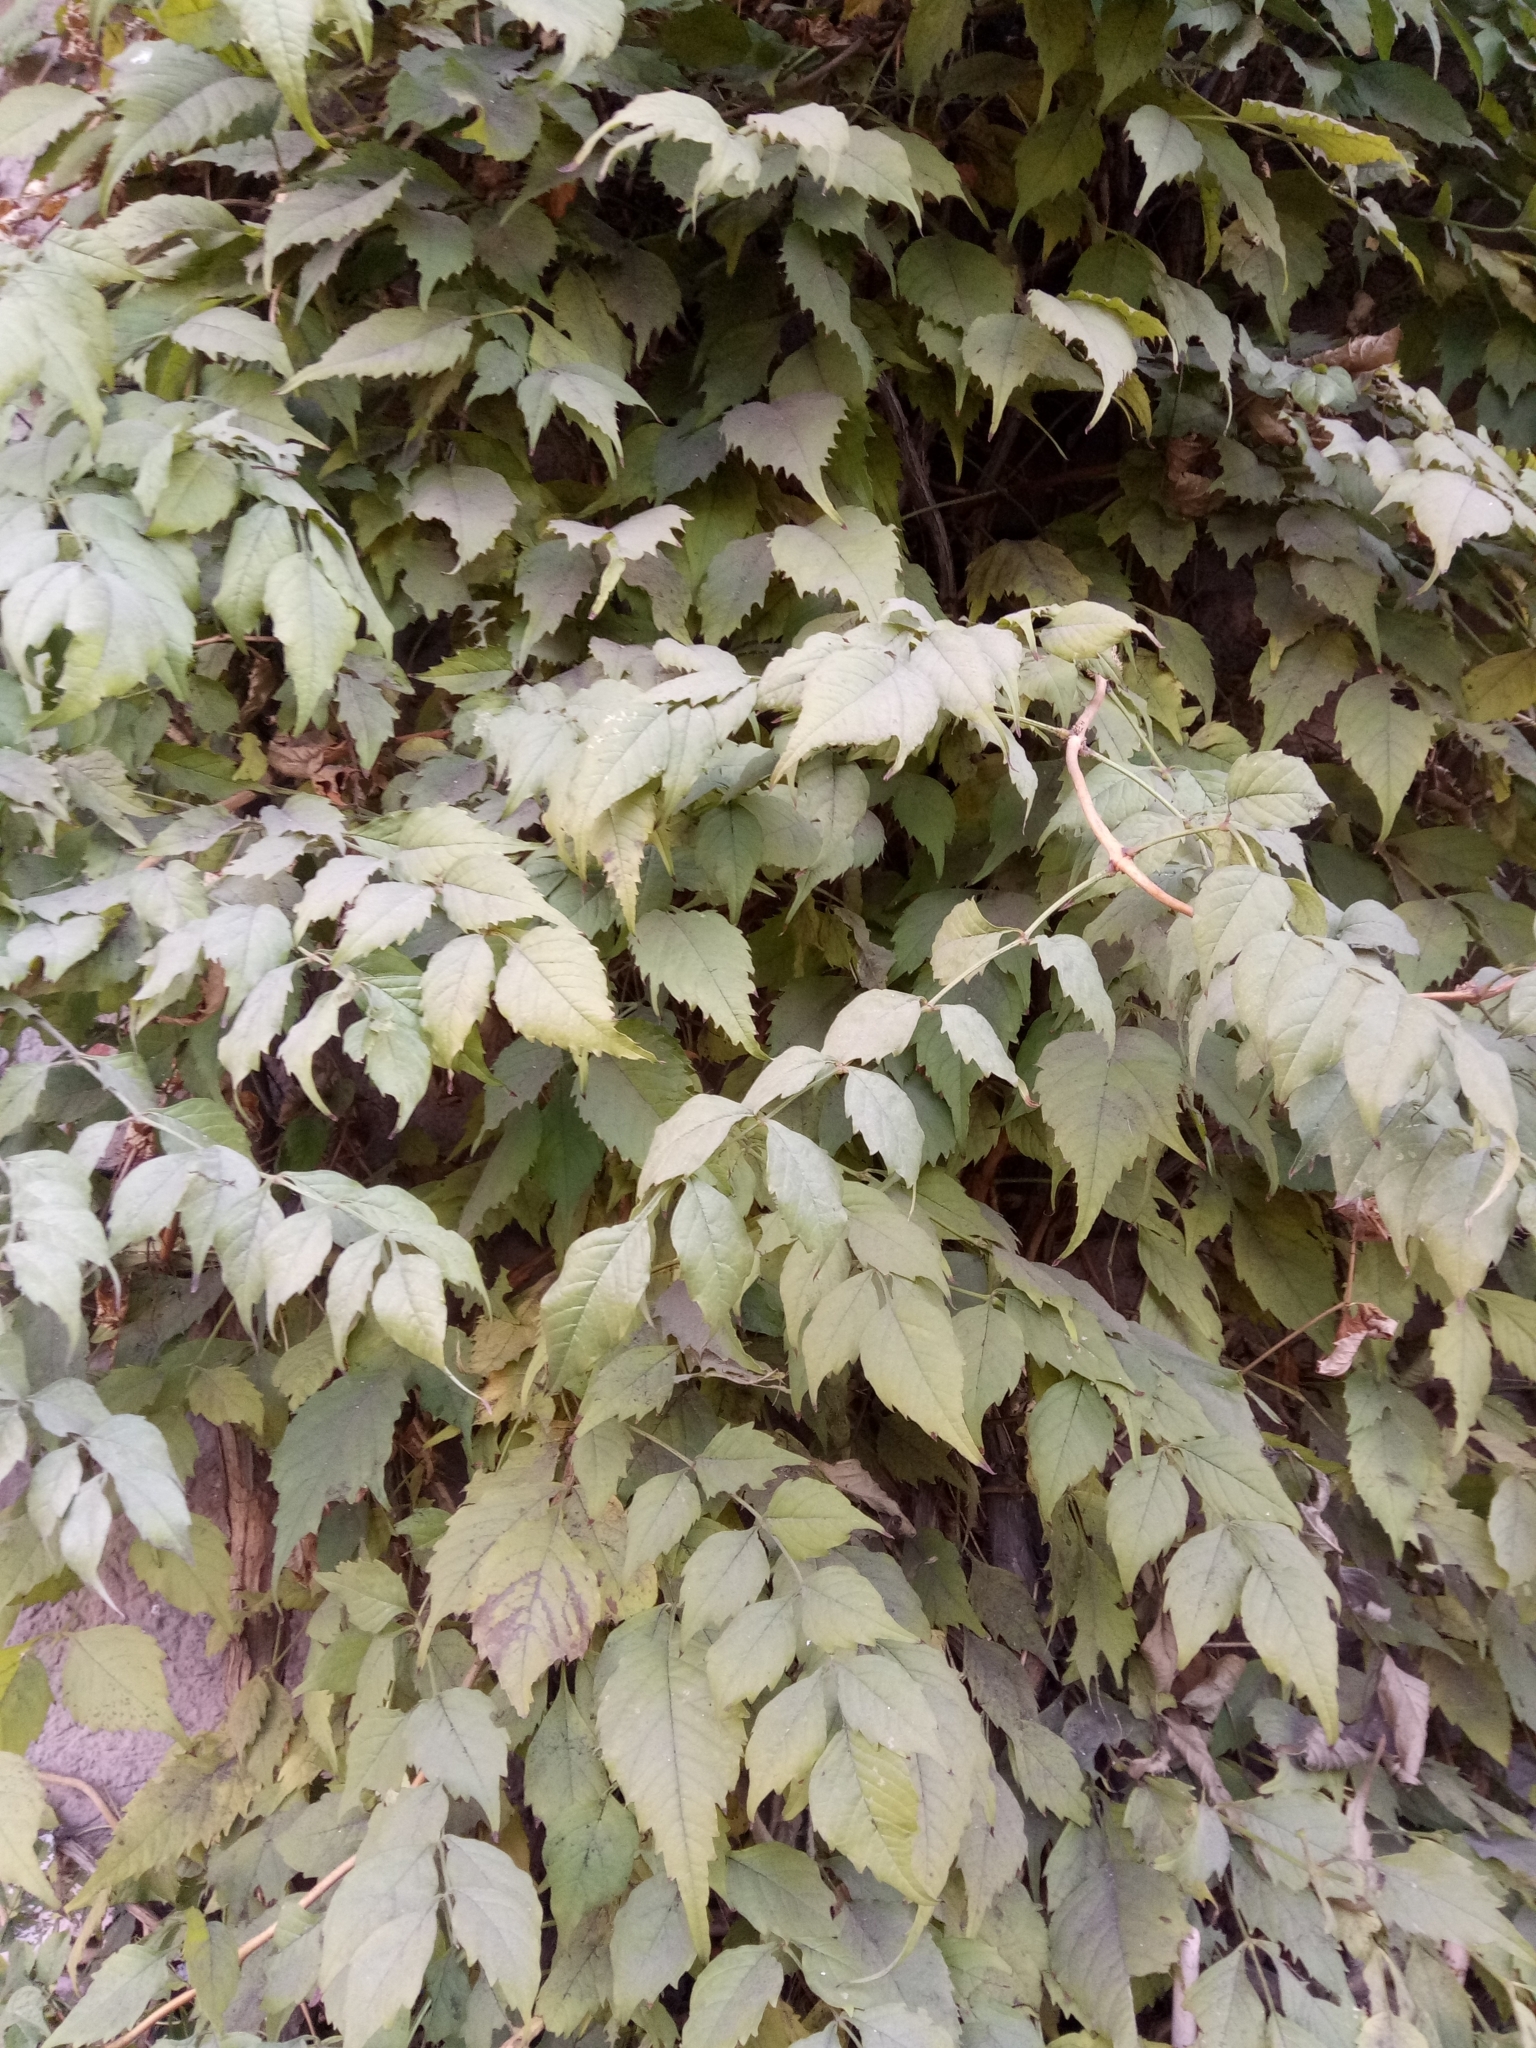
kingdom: Plantae
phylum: Tracheophyta
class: Magnoliopsida
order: Lamiales
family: Bignoniaceae
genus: Campsis
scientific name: Campsis radicans
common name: Trumpet-creeper
